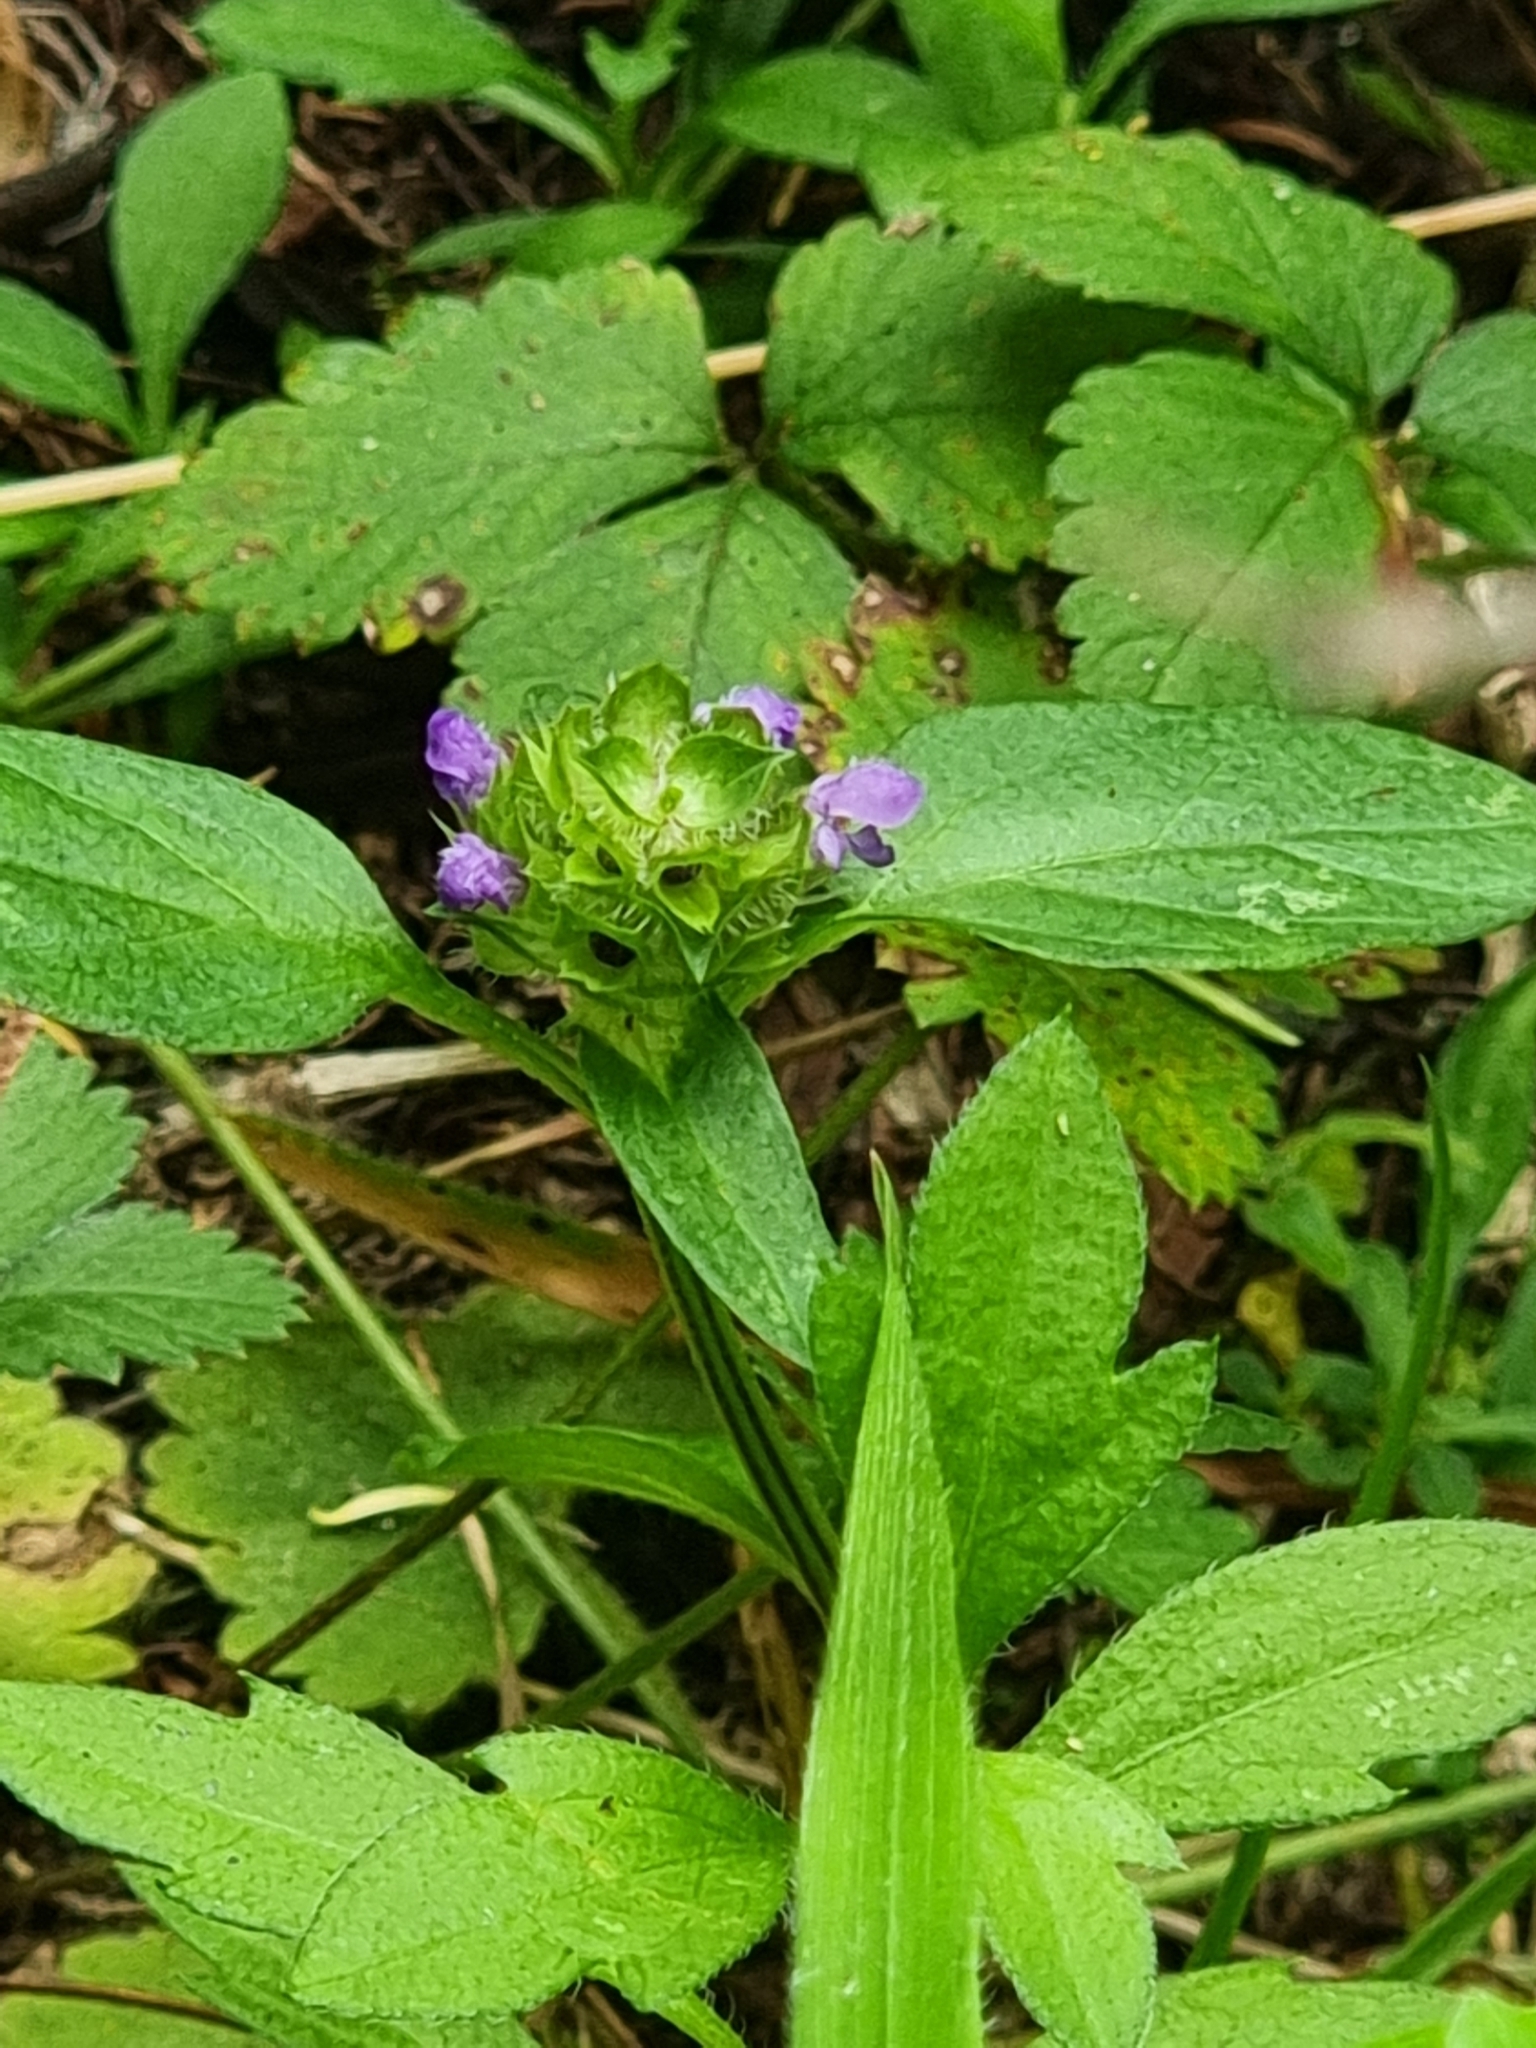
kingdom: Plantae
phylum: Tracheophyta
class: Magnoliopsida
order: Lamiales
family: Lamiaceae
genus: Prunella
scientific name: Prunella vulgaris
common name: Heal-all
